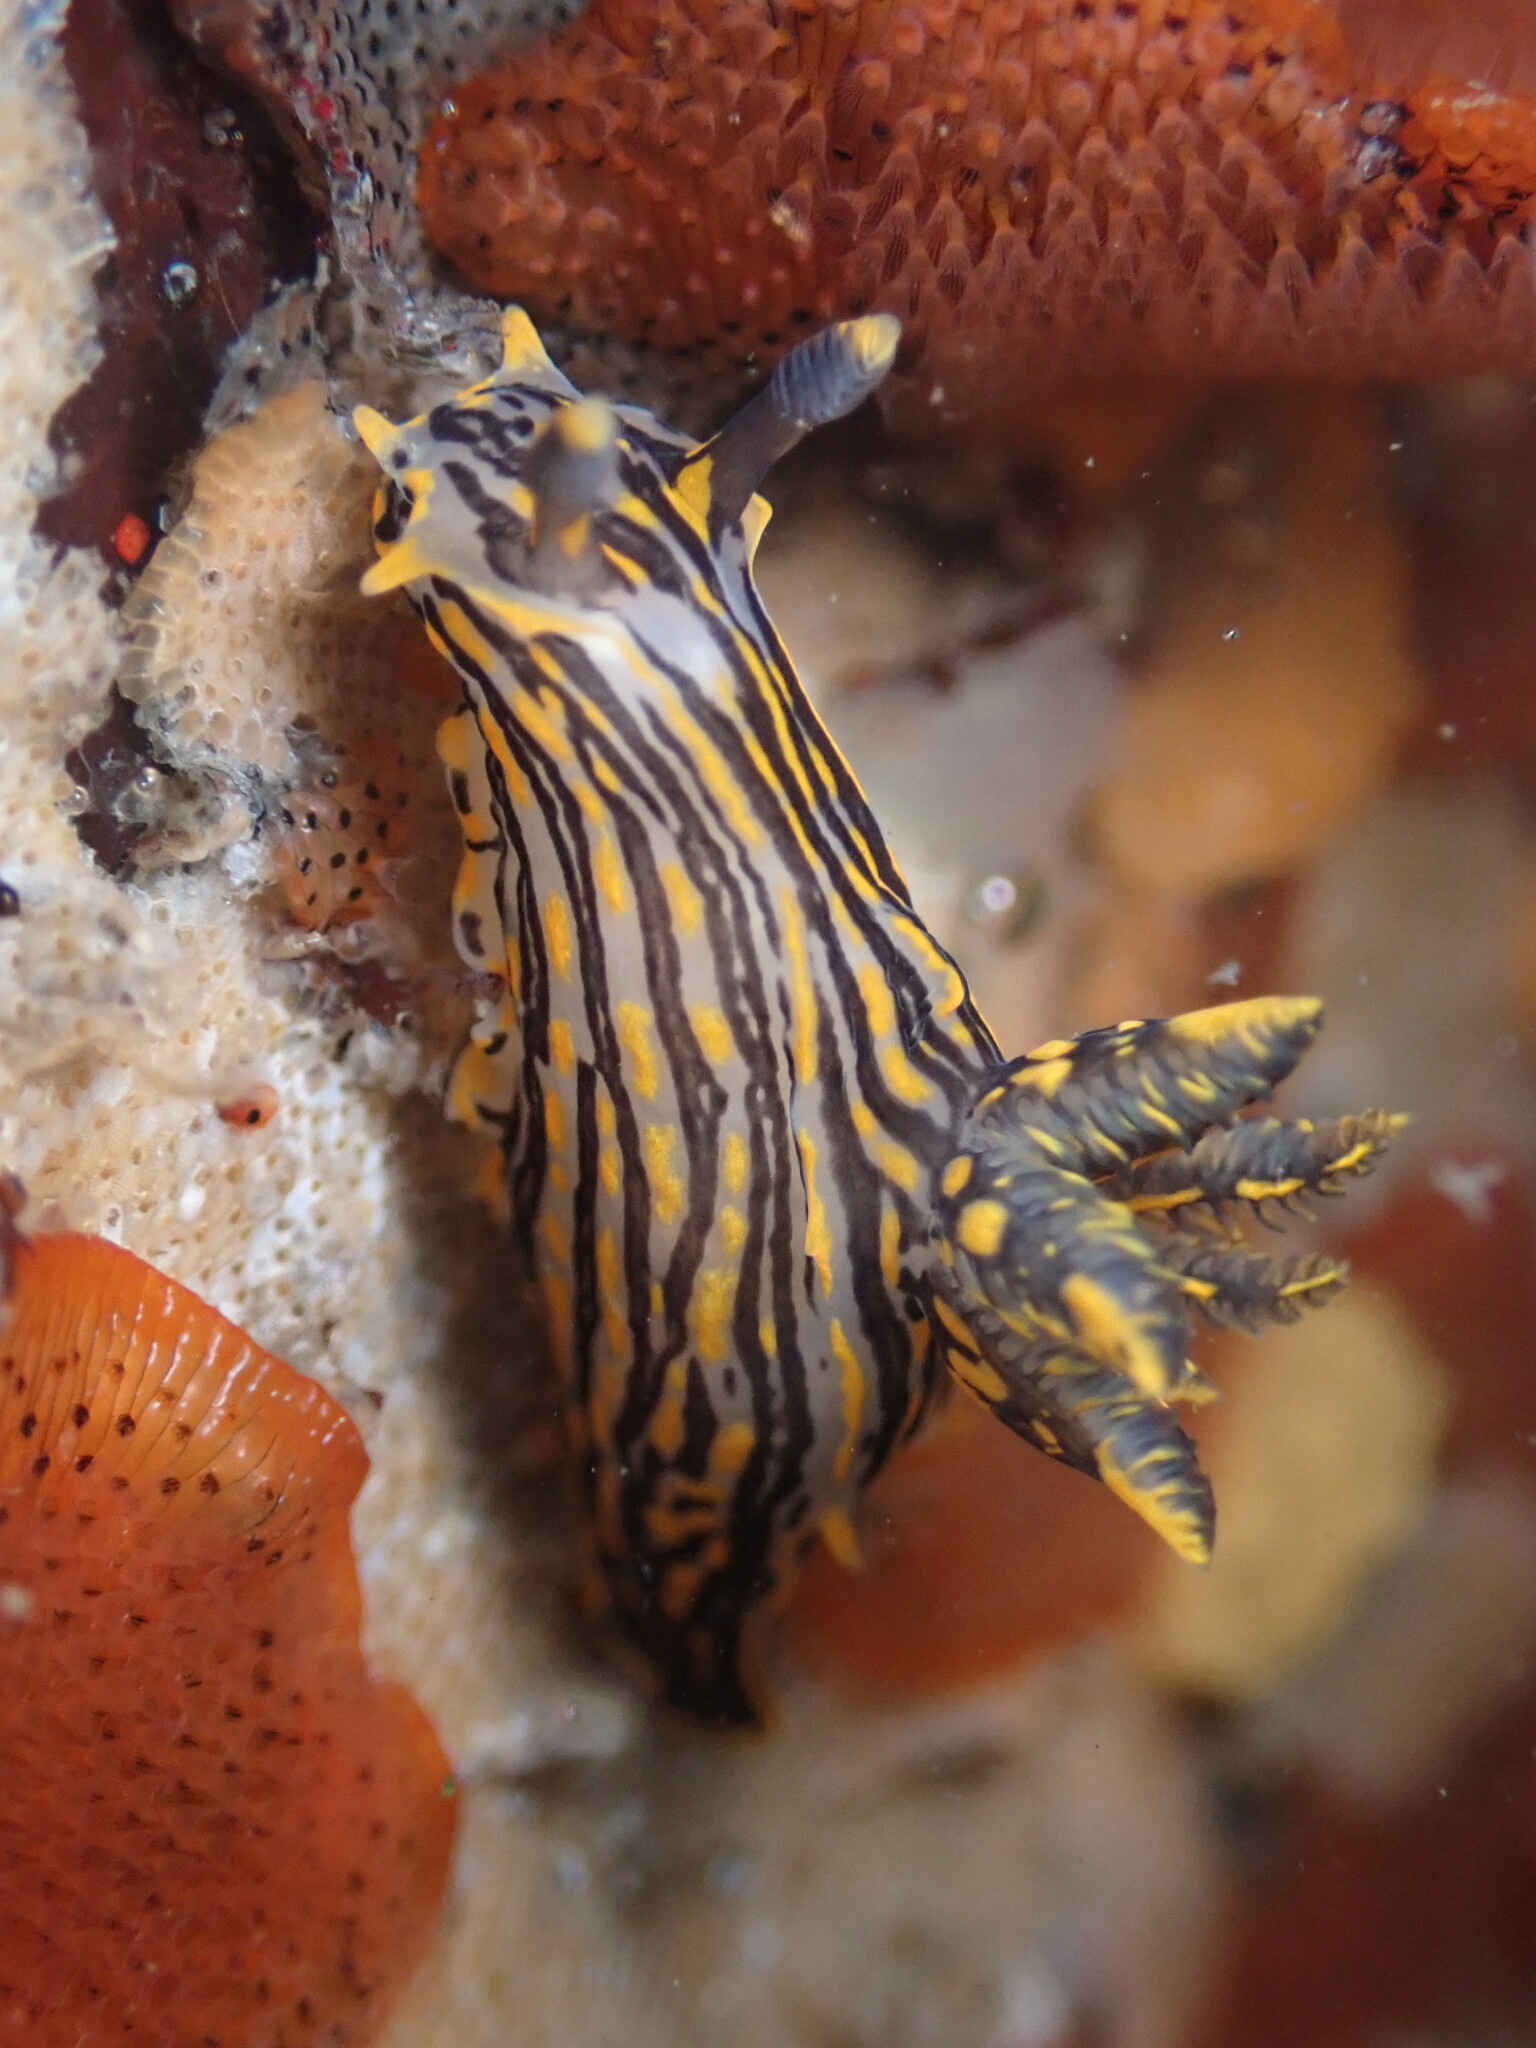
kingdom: Animalia
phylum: Mollusca
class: Gastropoda
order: Nudibranchia
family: Polyceridae
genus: Polycera
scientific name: Polycera atra
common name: Orange-spike polycera
